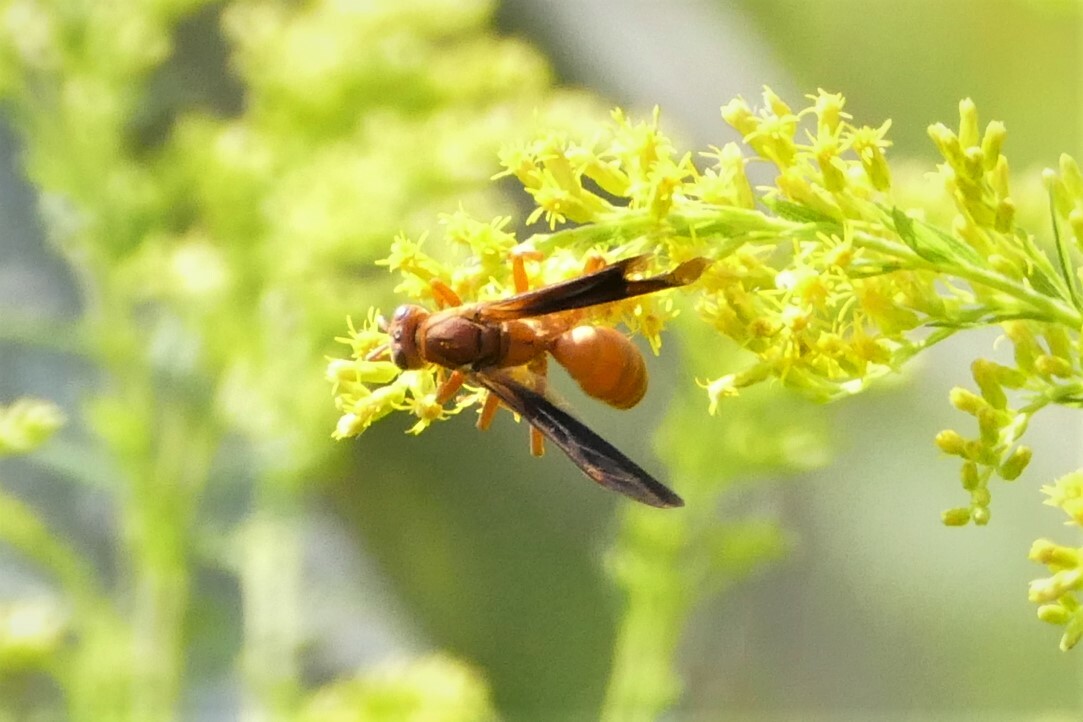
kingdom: Animalia
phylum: Arthropoda
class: Insecta
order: Hymenoptera
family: Eumenidae
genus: Polistes
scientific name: Polistes carolina
